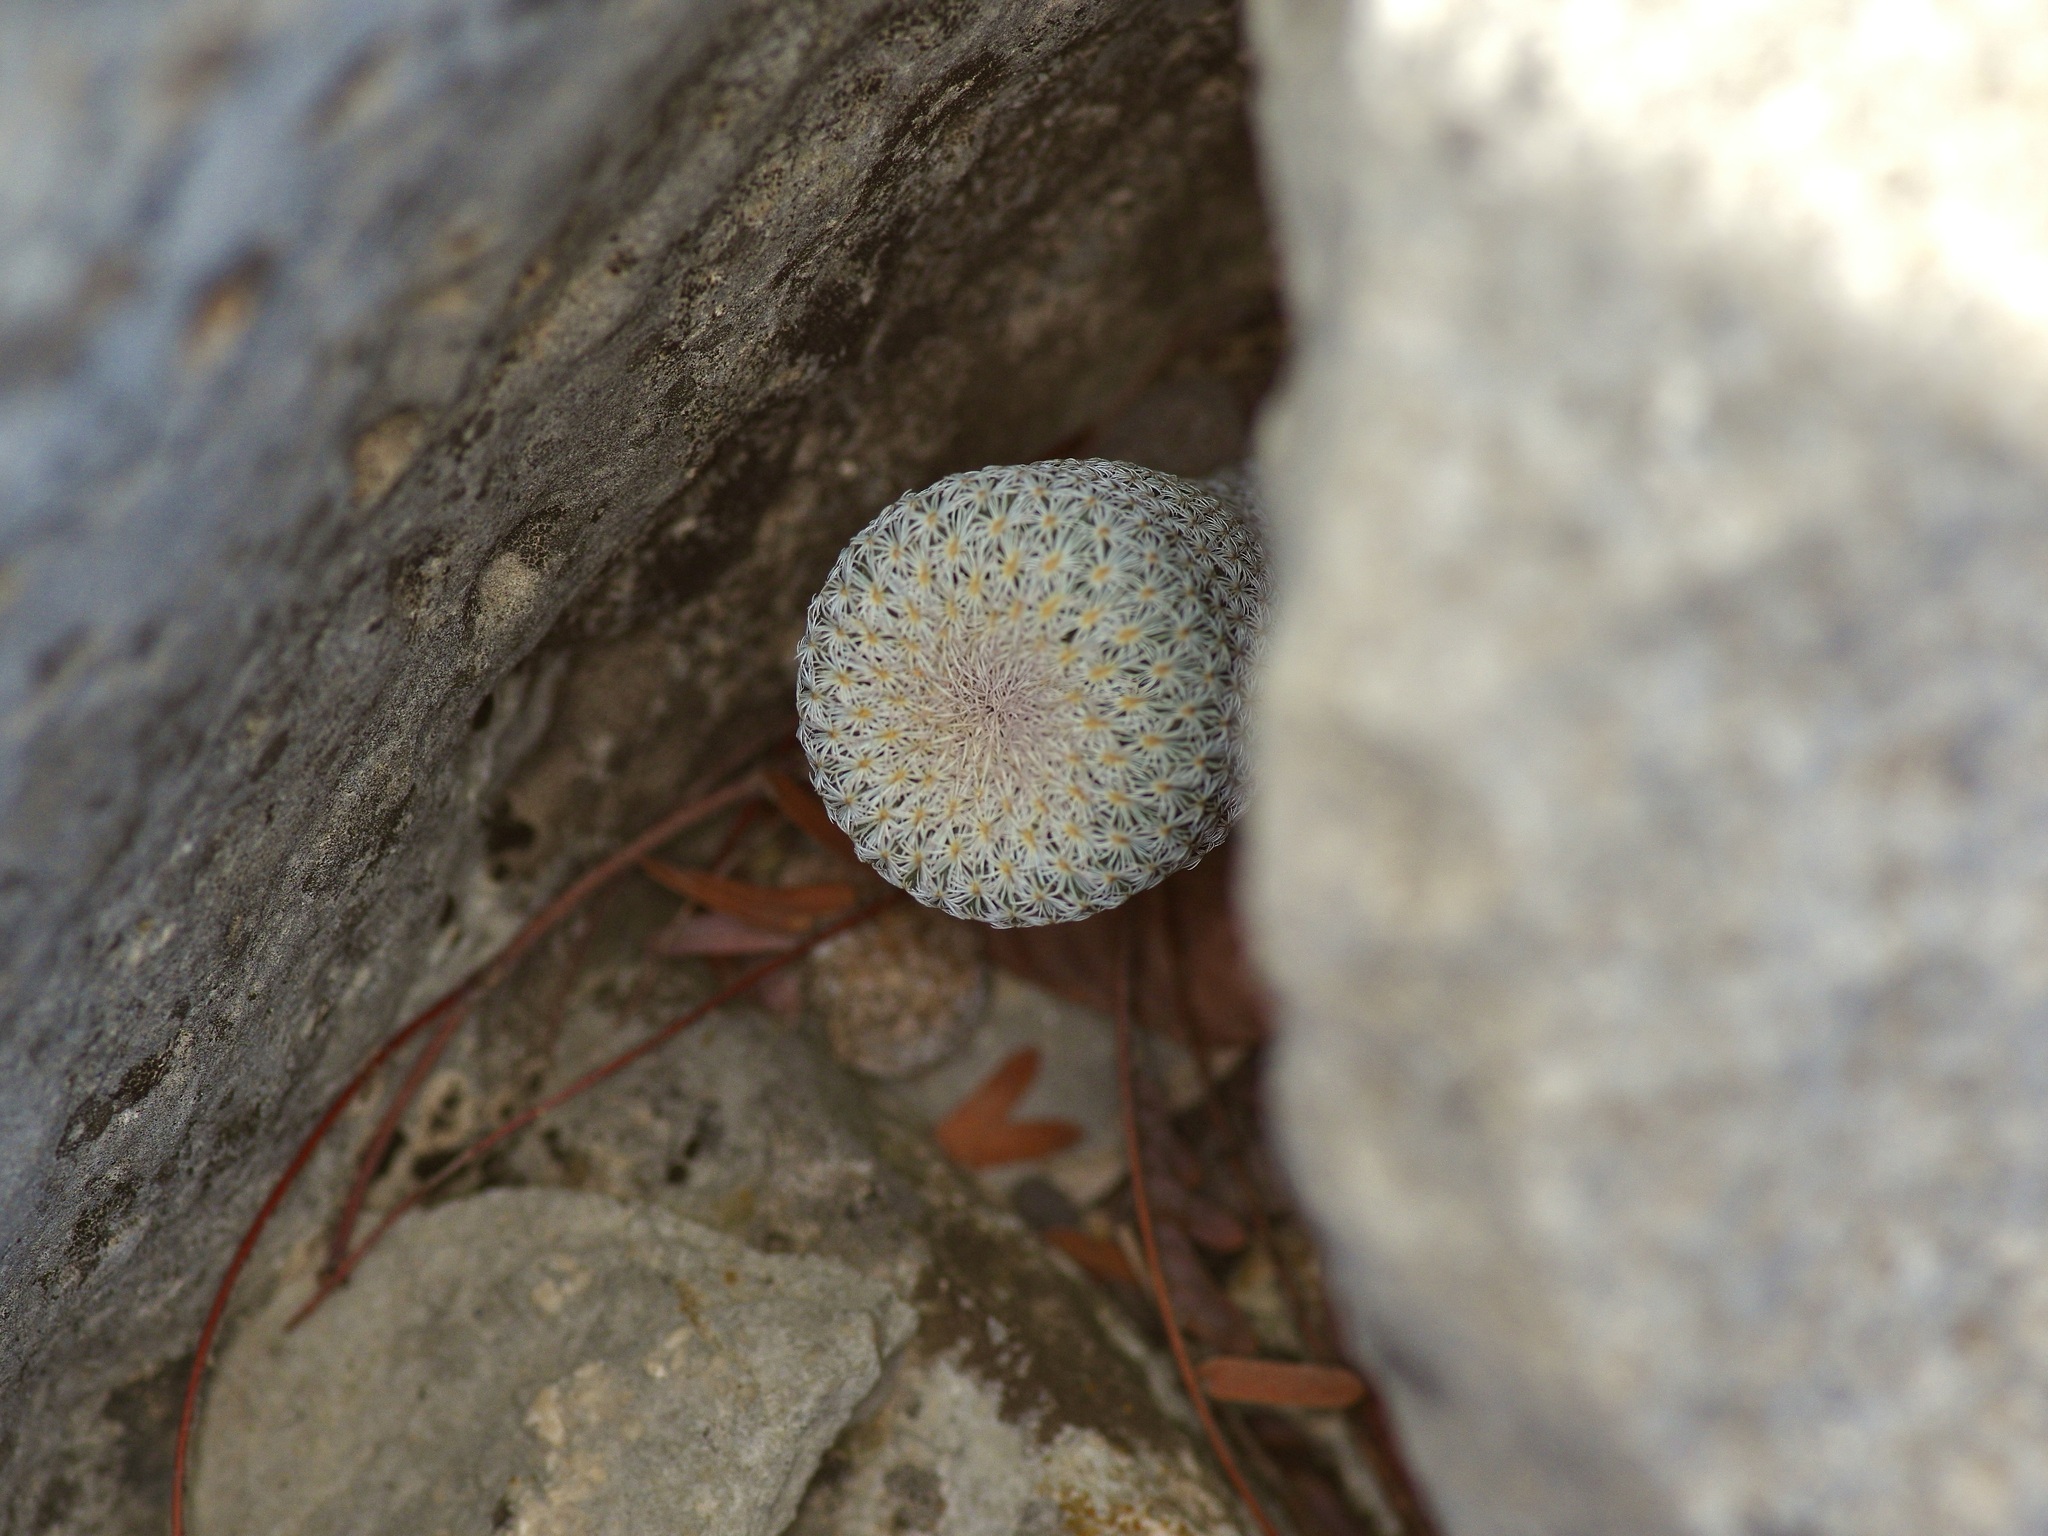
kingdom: Plantae
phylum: Tracheophyta
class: Magnoliopsida
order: Caryophyllales
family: Cactaceae
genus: Epithelantha
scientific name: Epithelantha micromeris
